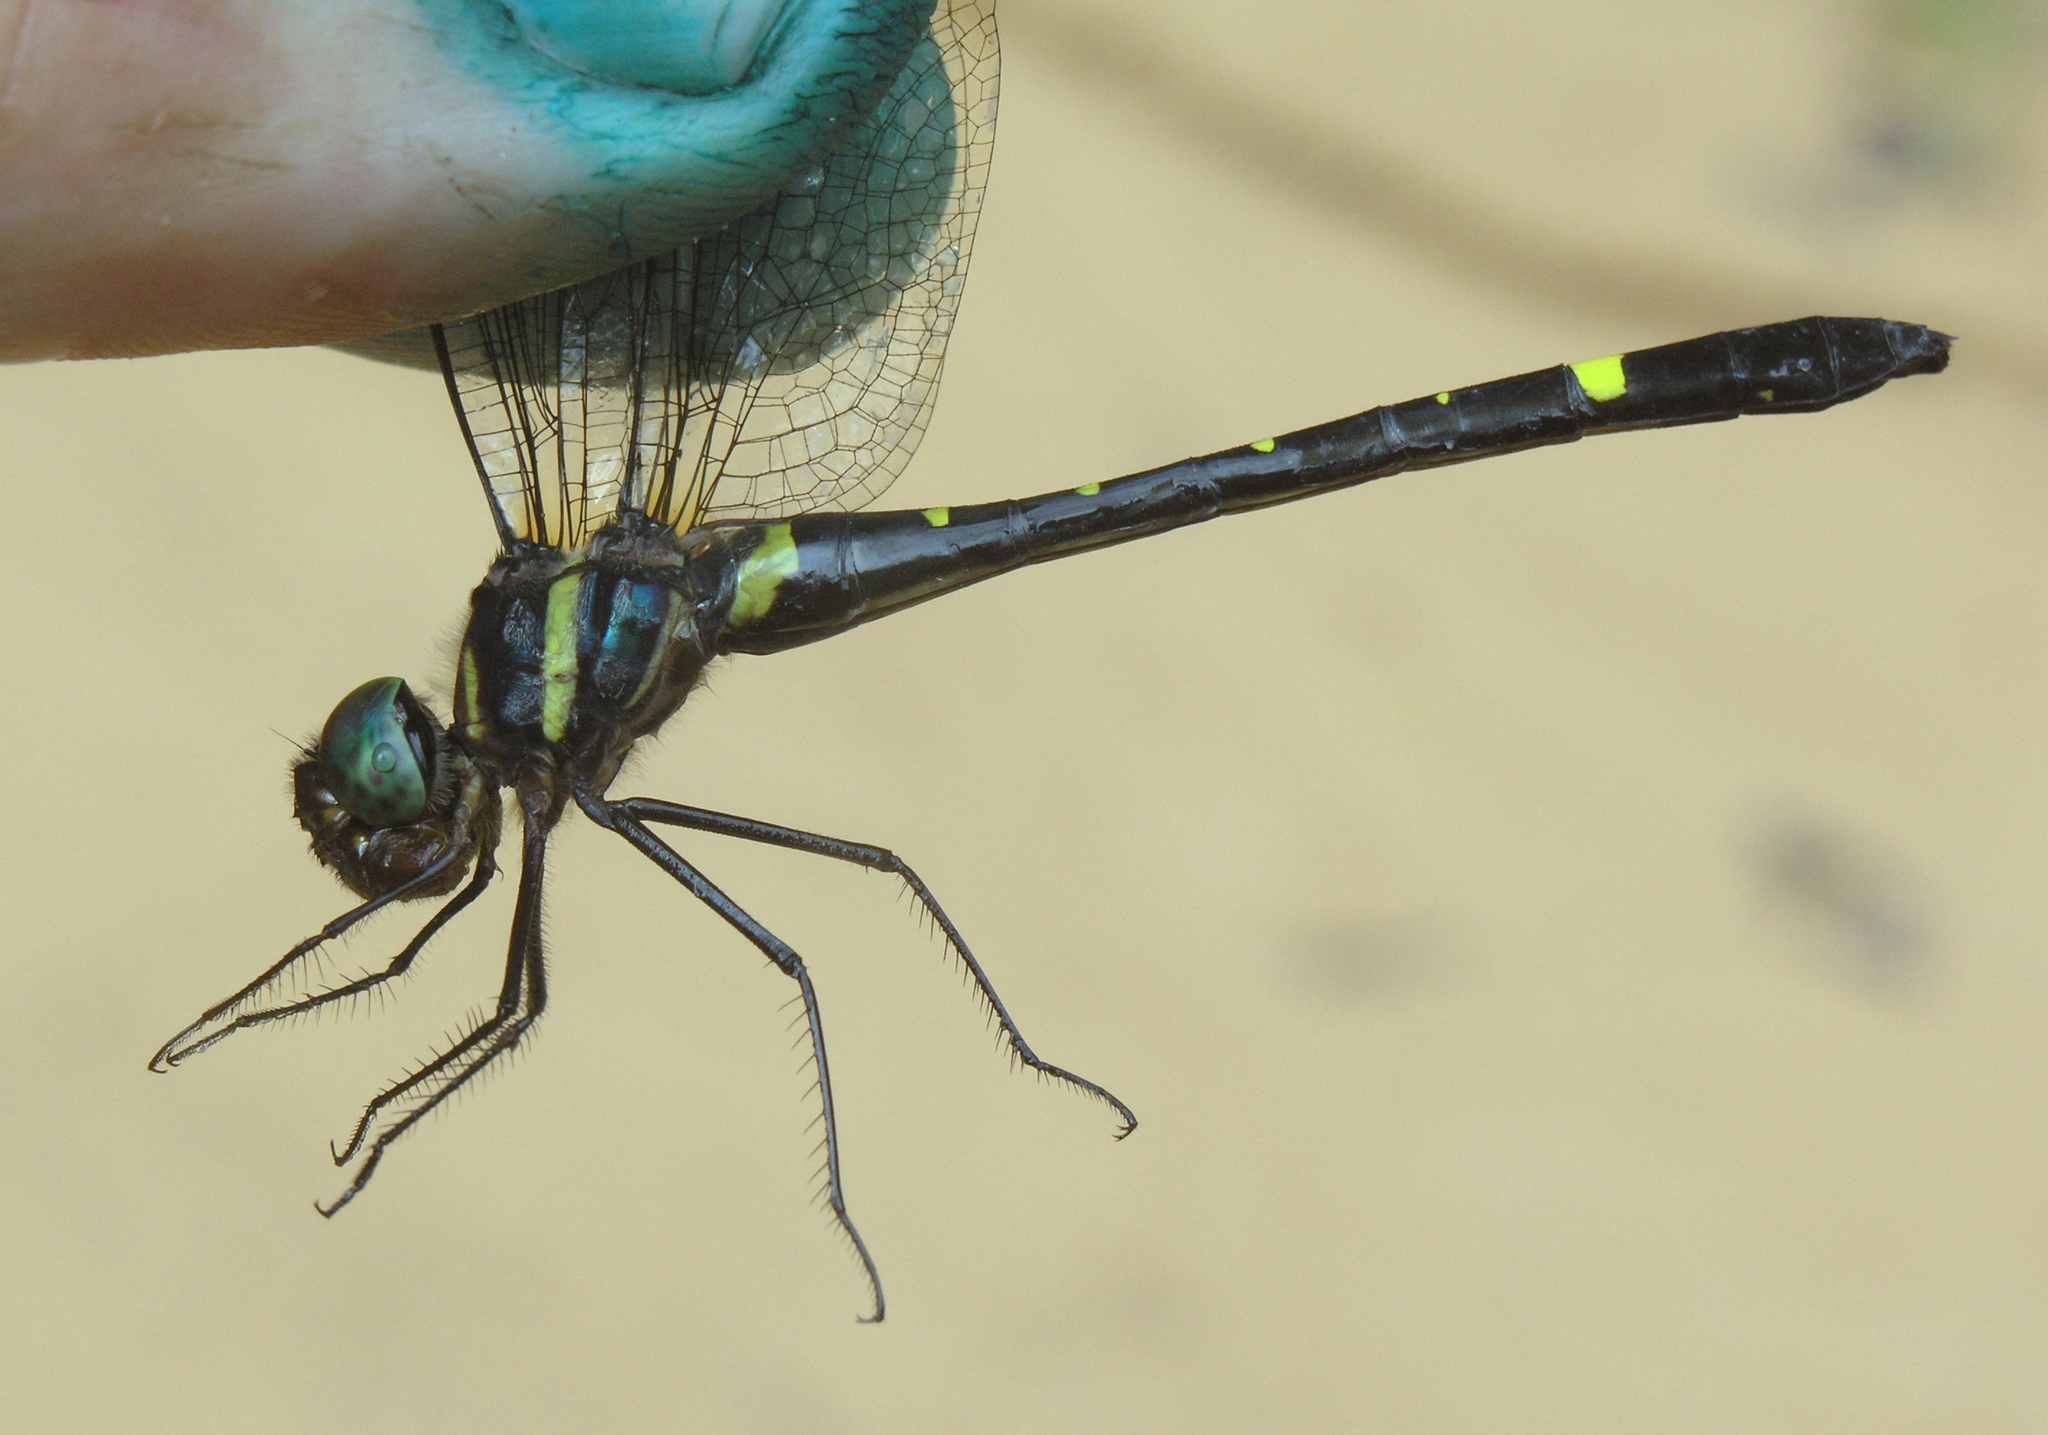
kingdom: Animalia
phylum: Arthropoda
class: Insecta
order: Odonata
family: Macromiidae
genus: Macromia
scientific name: Macromia septima
